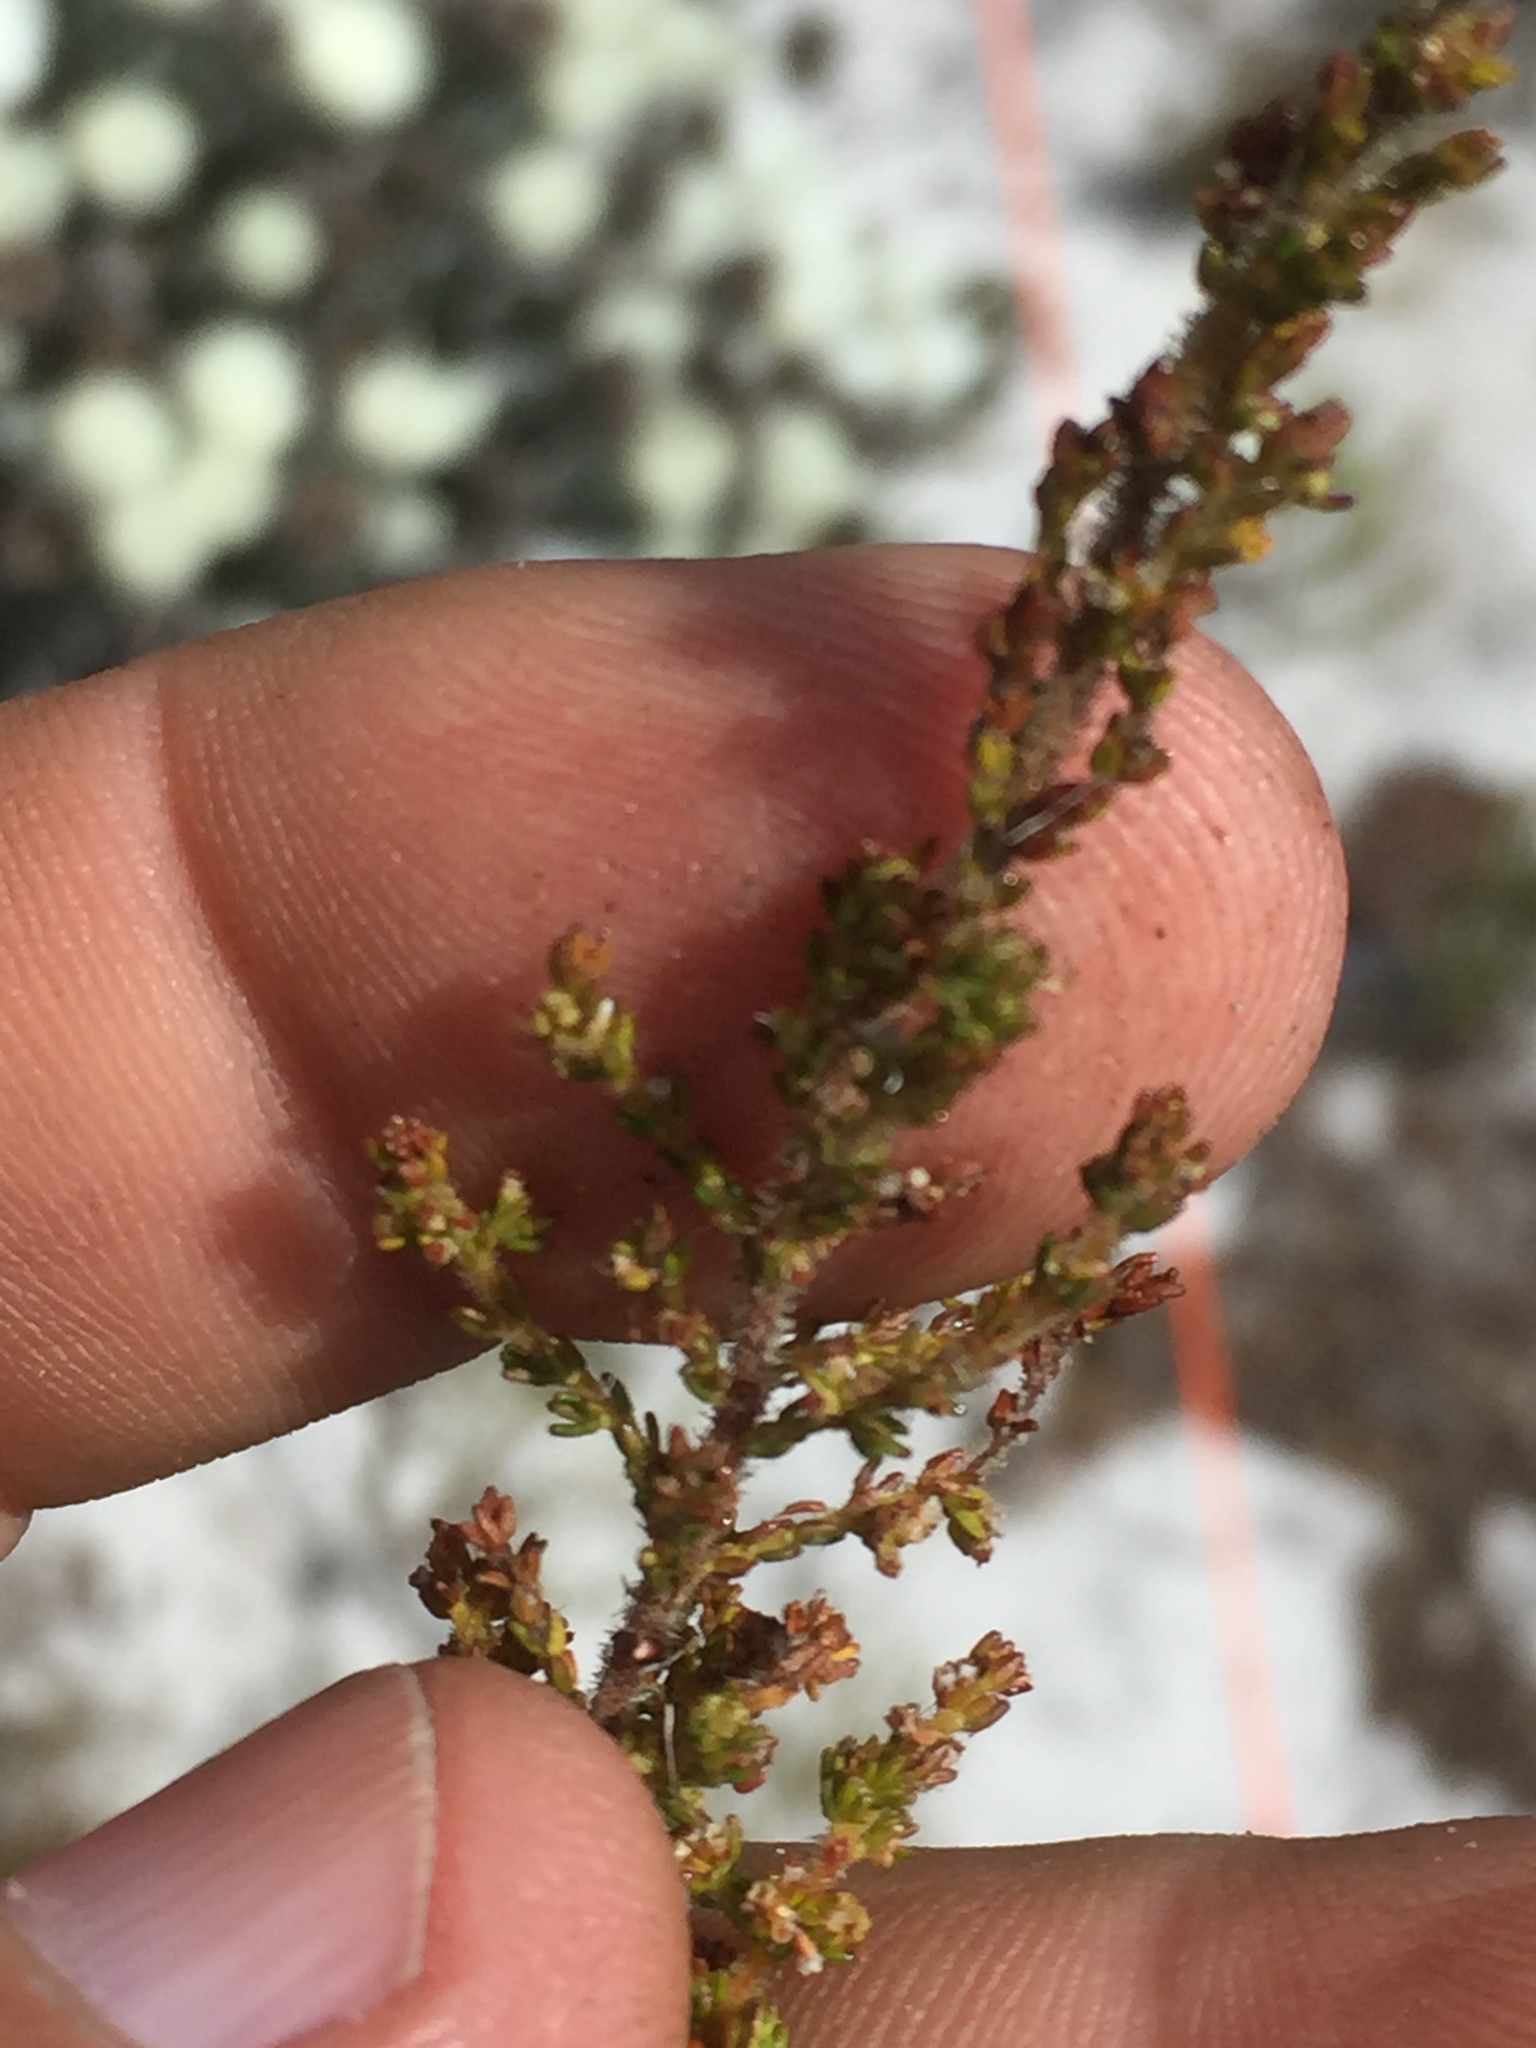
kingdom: Plantae
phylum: Tracheophyta
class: Magnoliopsida
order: Ericales
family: Ericaceae
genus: Erica
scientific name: Erica muscosa
